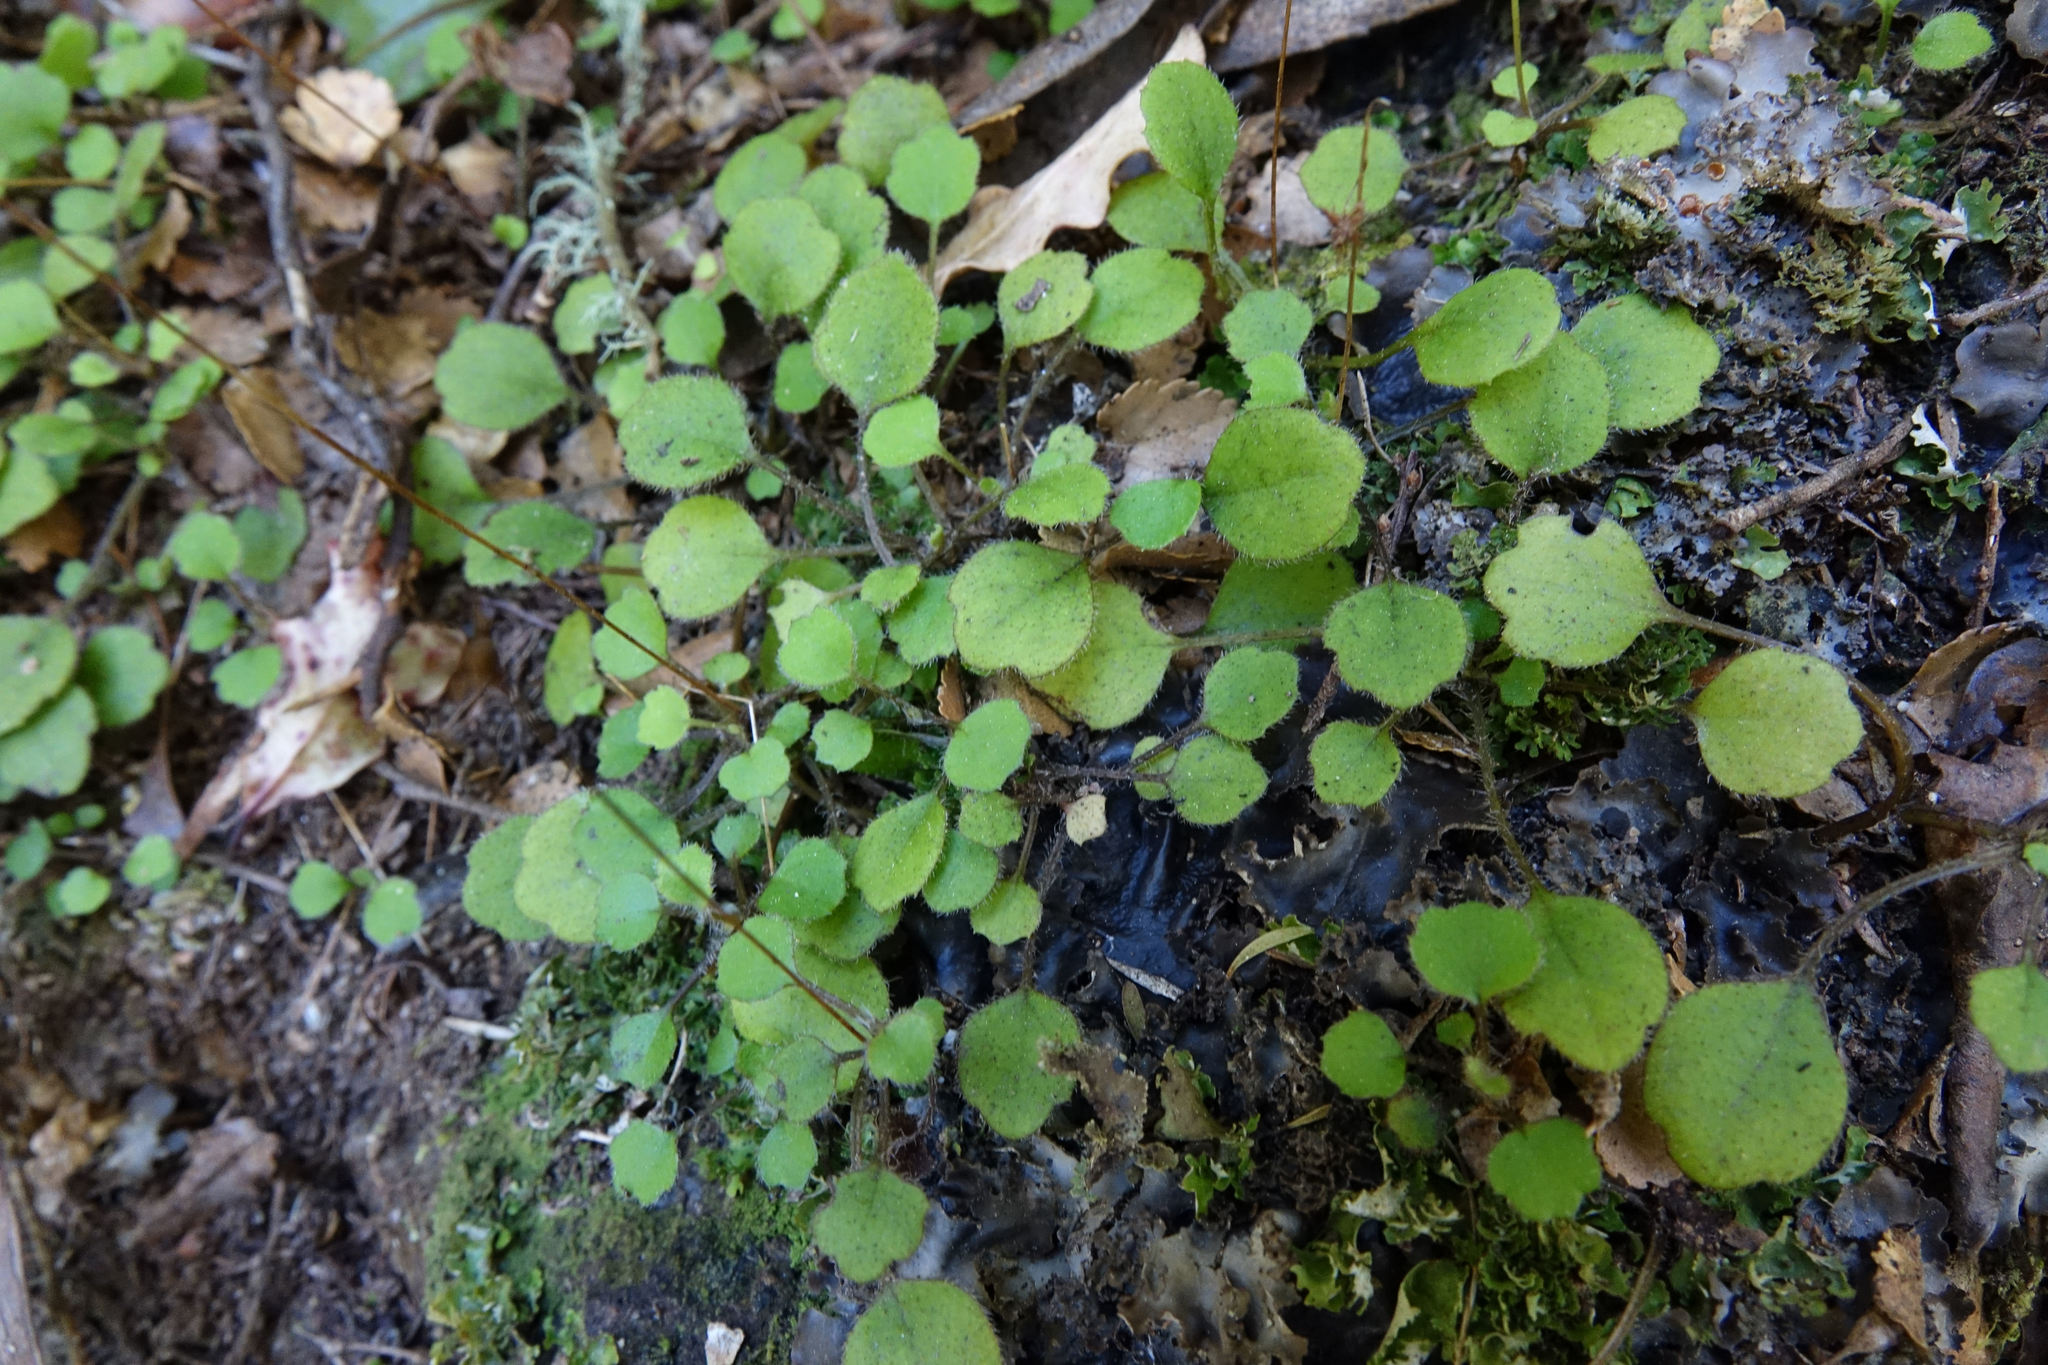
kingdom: Plantae
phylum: Tracheophyta
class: Magnoliopsida
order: Asterales
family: Asteraceae
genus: Lagenophora
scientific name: Lagenophora strangulata
